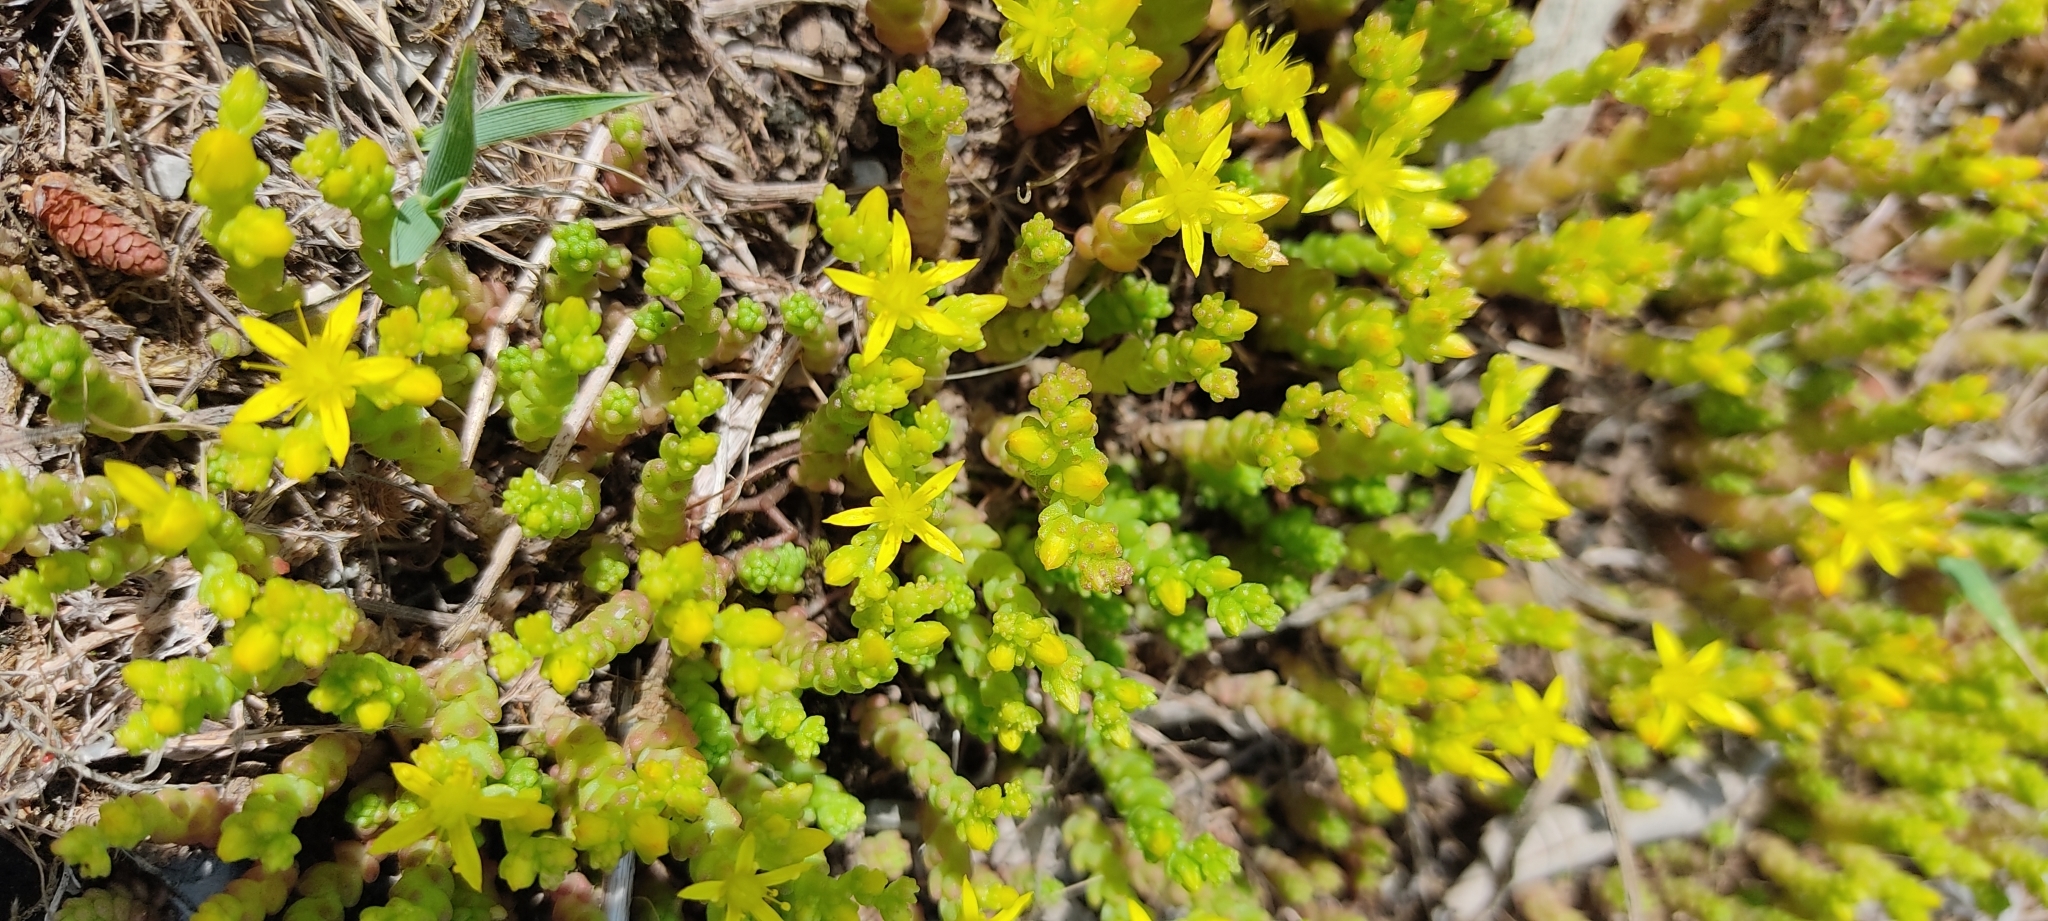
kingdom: Plantae
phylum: Tracheophyta
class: Magnoliopsida
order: Saxifragales
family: Crassulaceae
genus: Sedum
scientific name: Sedum acre
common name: Biting stonecrop
